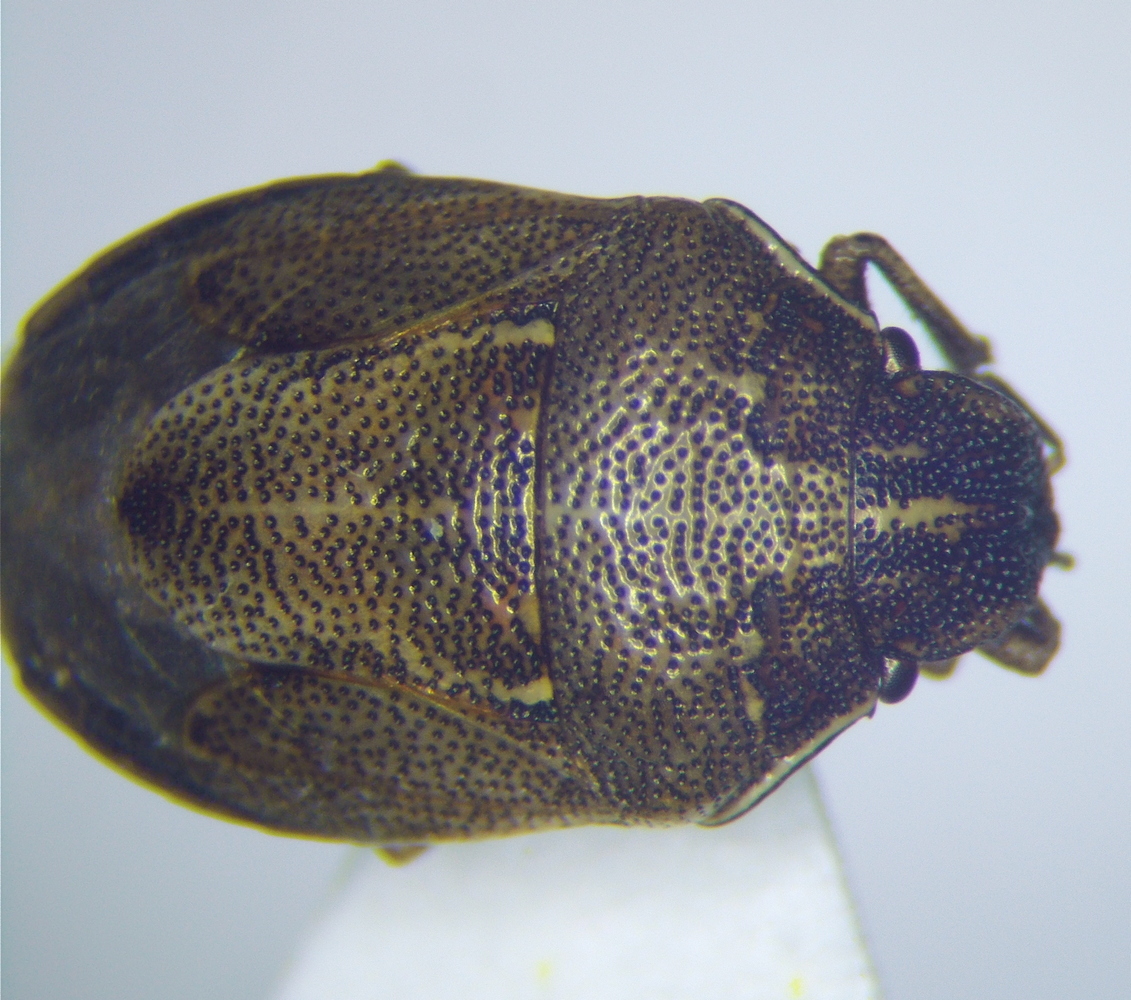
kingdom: Animalia
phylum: Arthropoda
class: Insecta
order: Hemiptera
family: Pentatomidae
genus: Neottiglossa
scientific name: Neottiglossa pusilla
